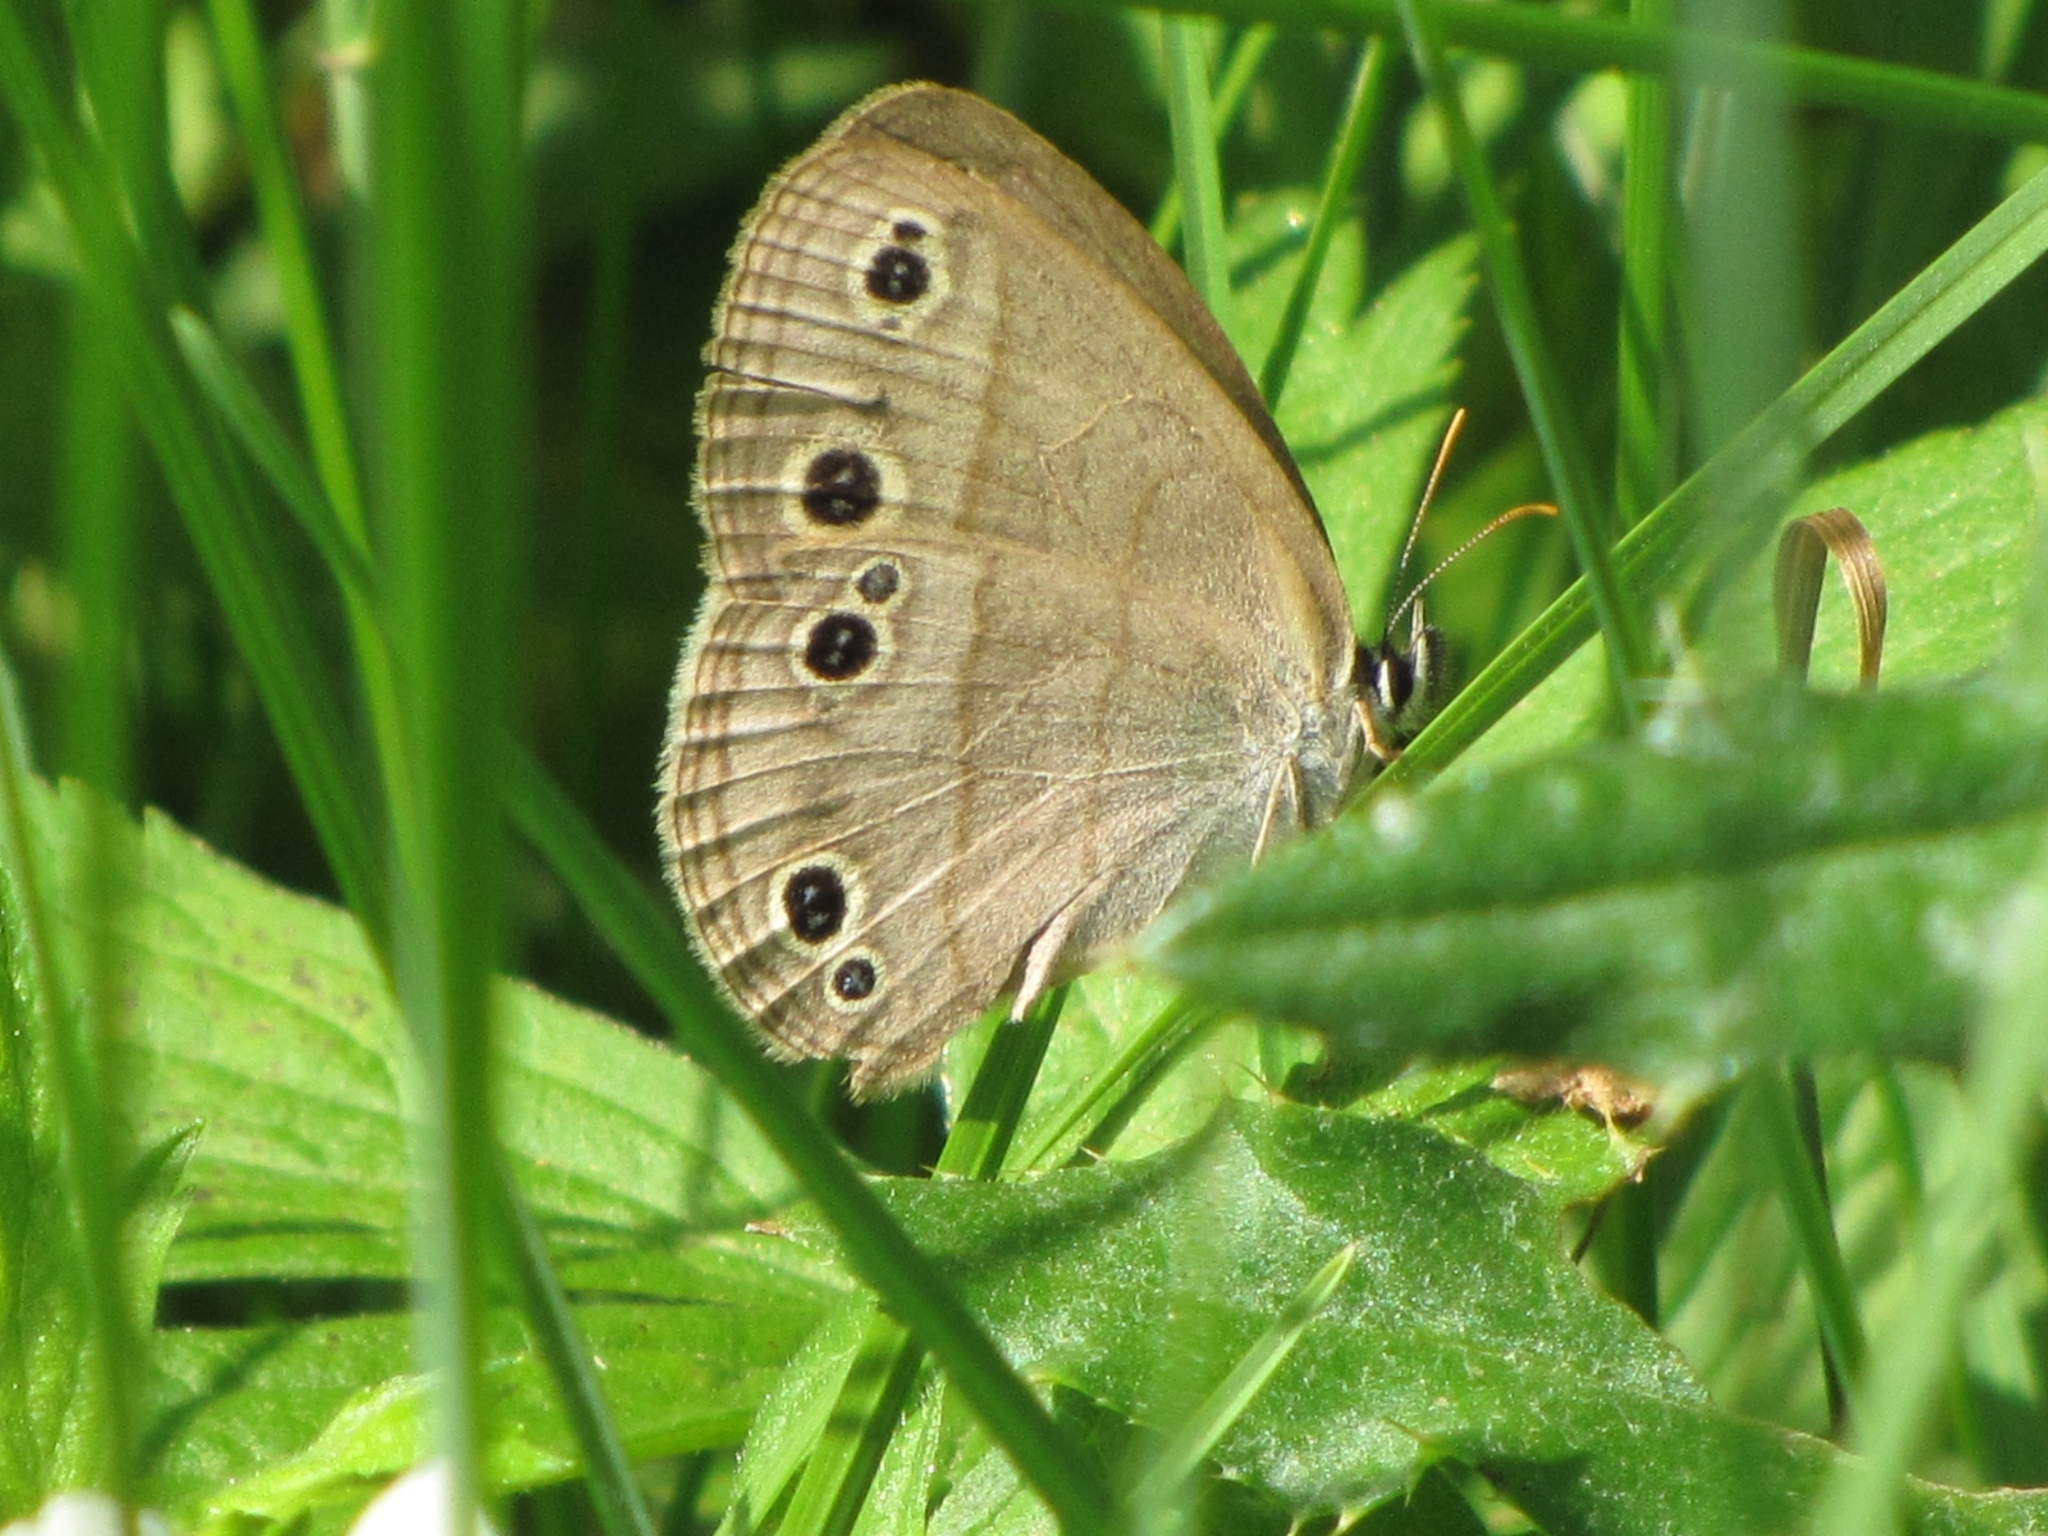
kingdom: Animalia
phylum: Arthropoda
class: Insecta
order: Lepidoptera
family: Nymphalidae
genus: Euptychia
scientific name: Euptychia cymela
